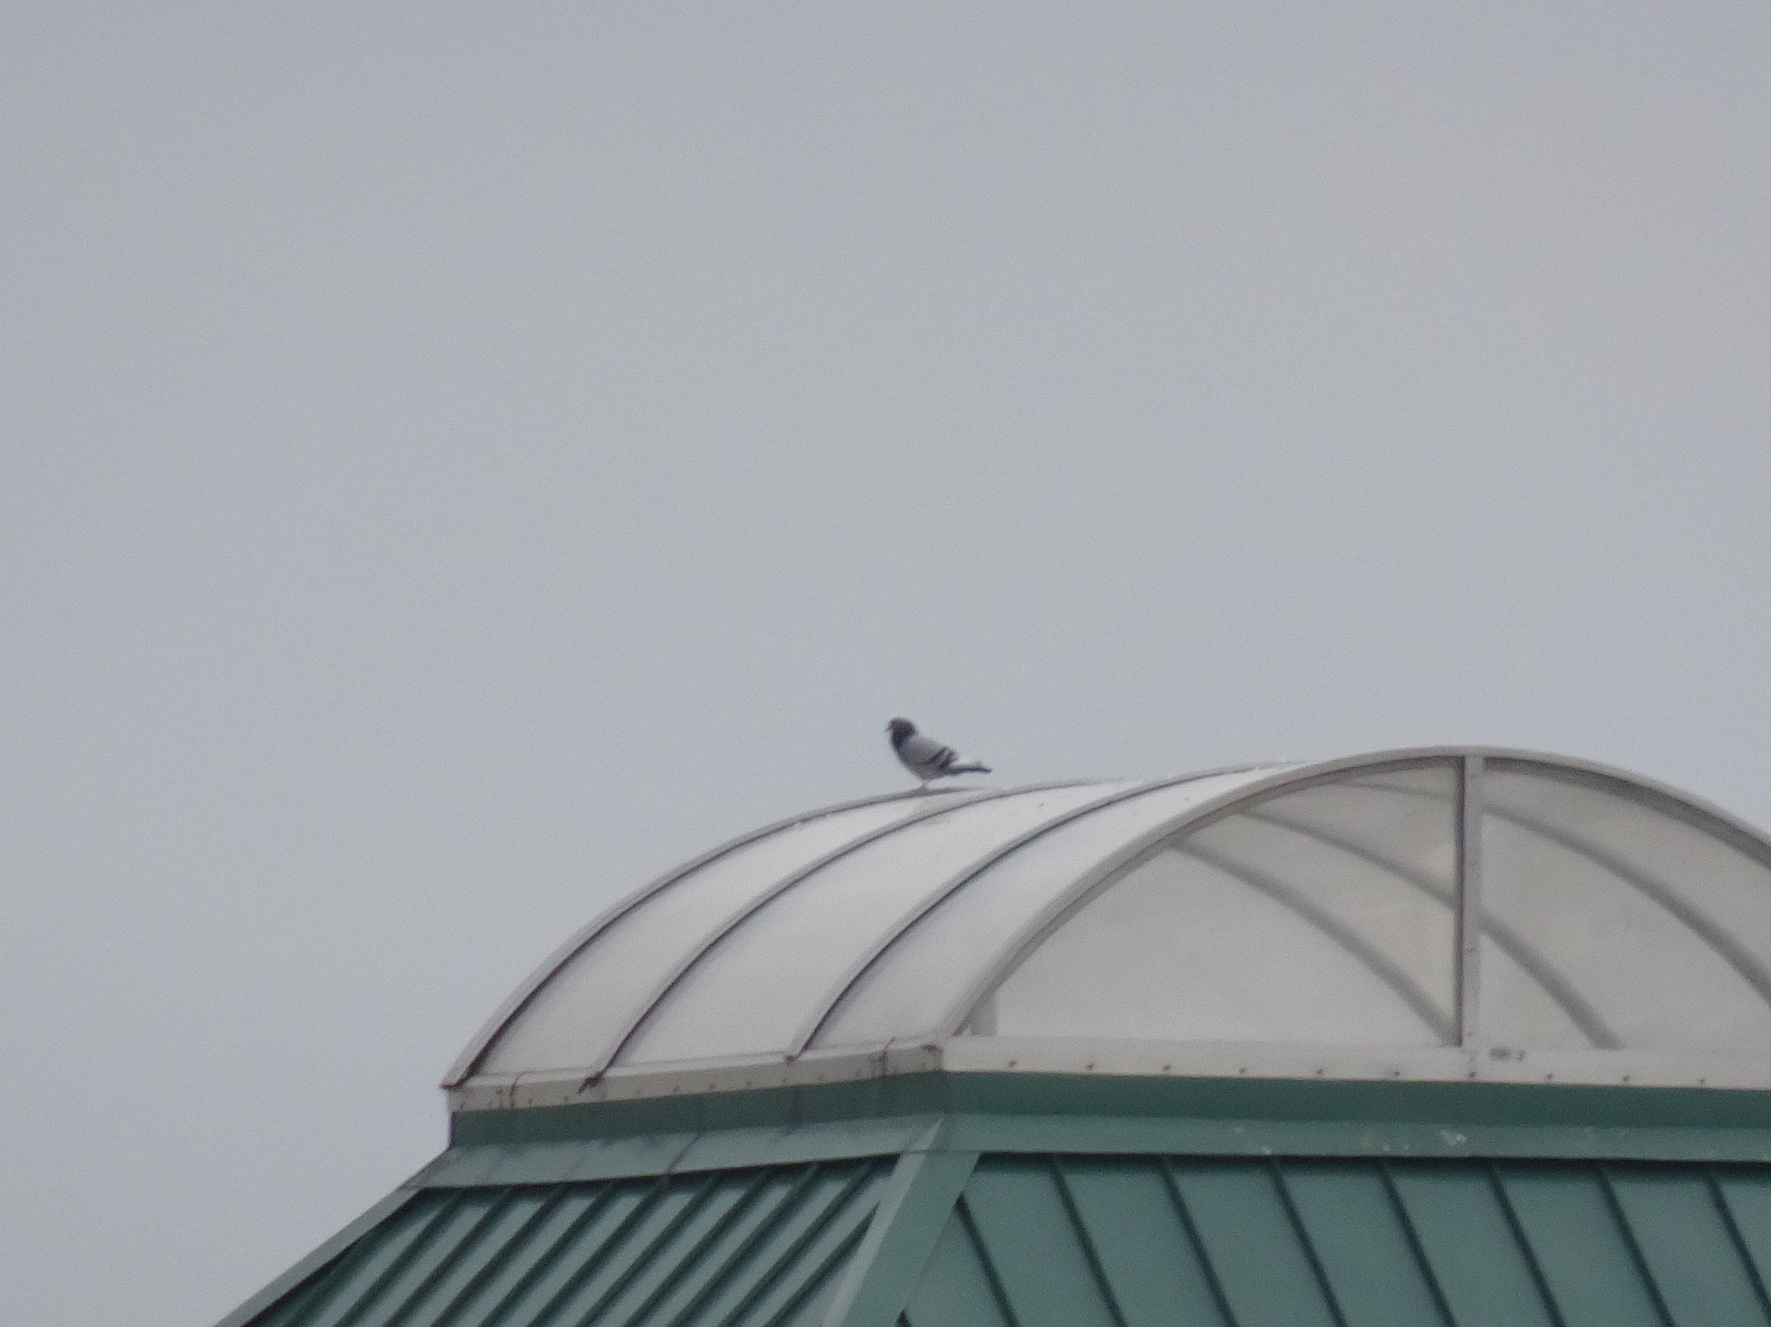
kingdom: Animalia
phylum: Chordata
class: Aves
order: Columbiformes
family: Columbidae
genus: Columba
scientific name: Columba livia
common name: Rock pigeon
